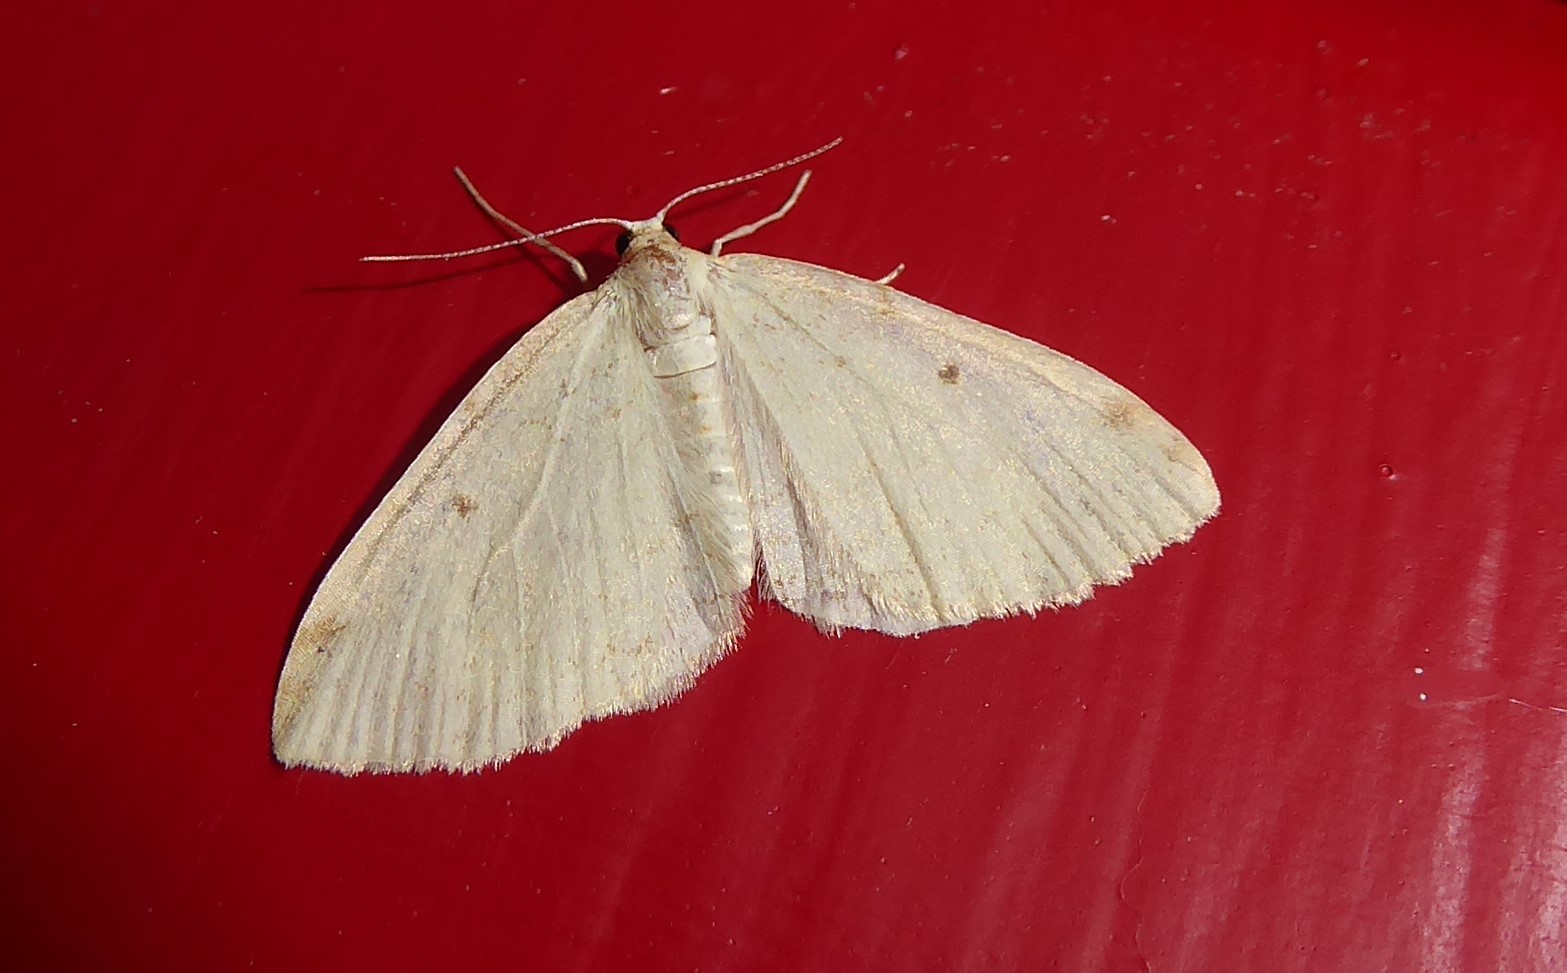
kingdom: Animalia
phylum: Arthropoda
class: Insecta
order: Lepidoptera
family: Geometridae
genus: Epiphryne
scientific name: Epiphryne undosata
